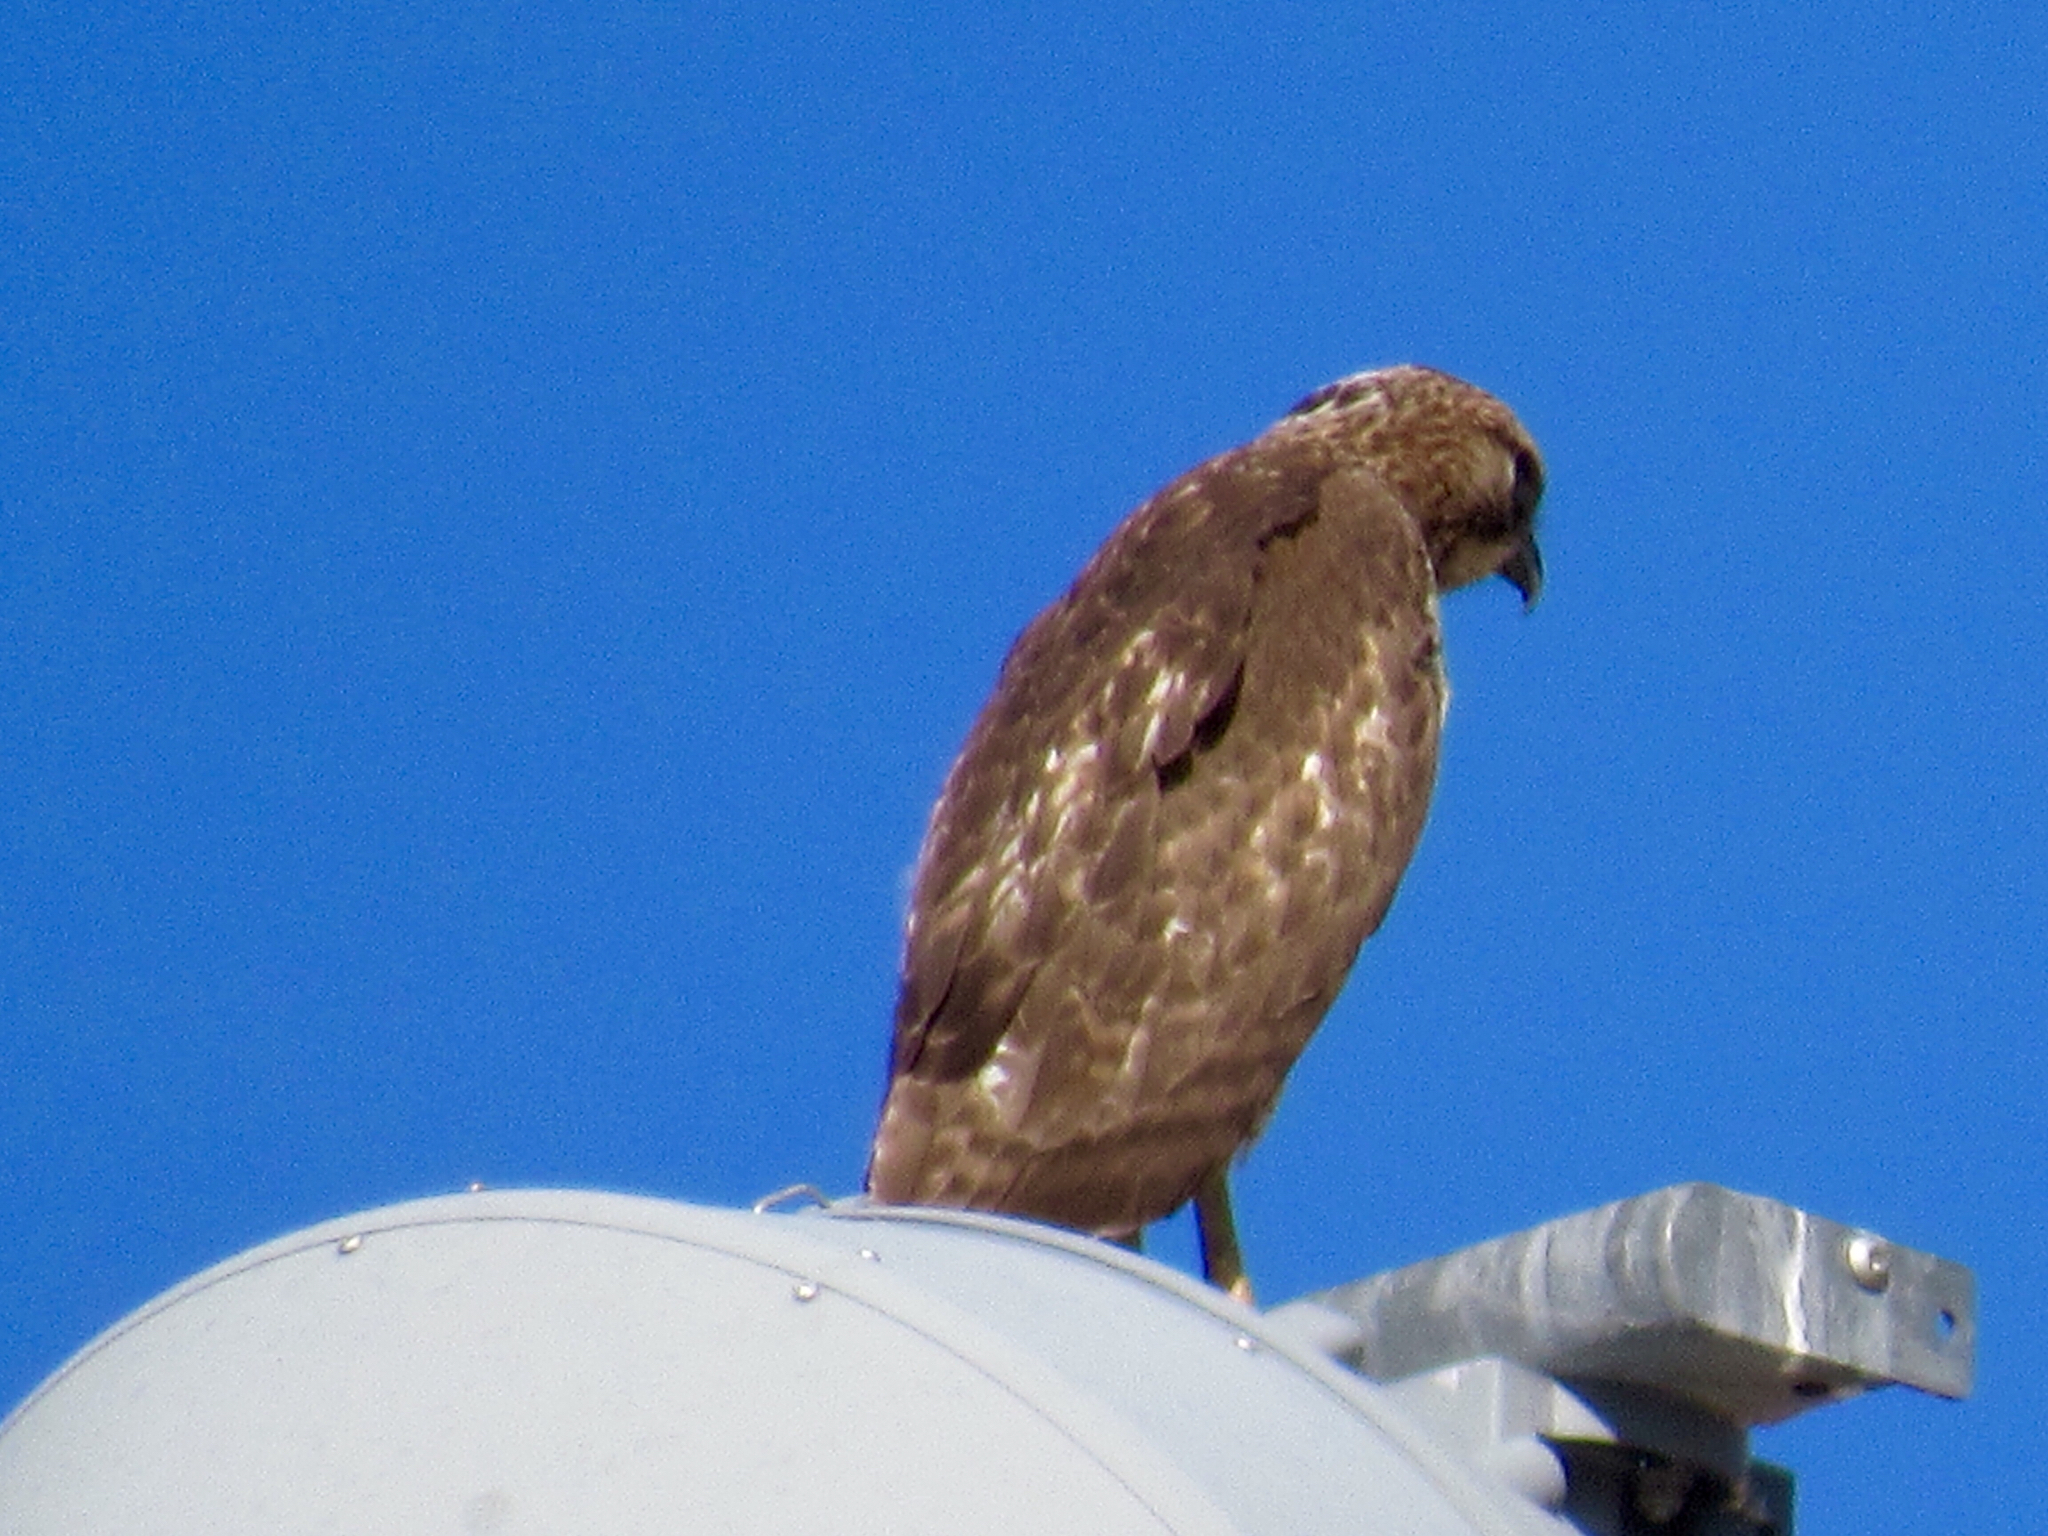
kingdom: Animalia
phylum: Chordata
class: Aves
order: Accipitriformes
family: Accipitridae
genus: Buteo
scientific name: Buteo jamaicensis
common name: Red-tailed hawk
